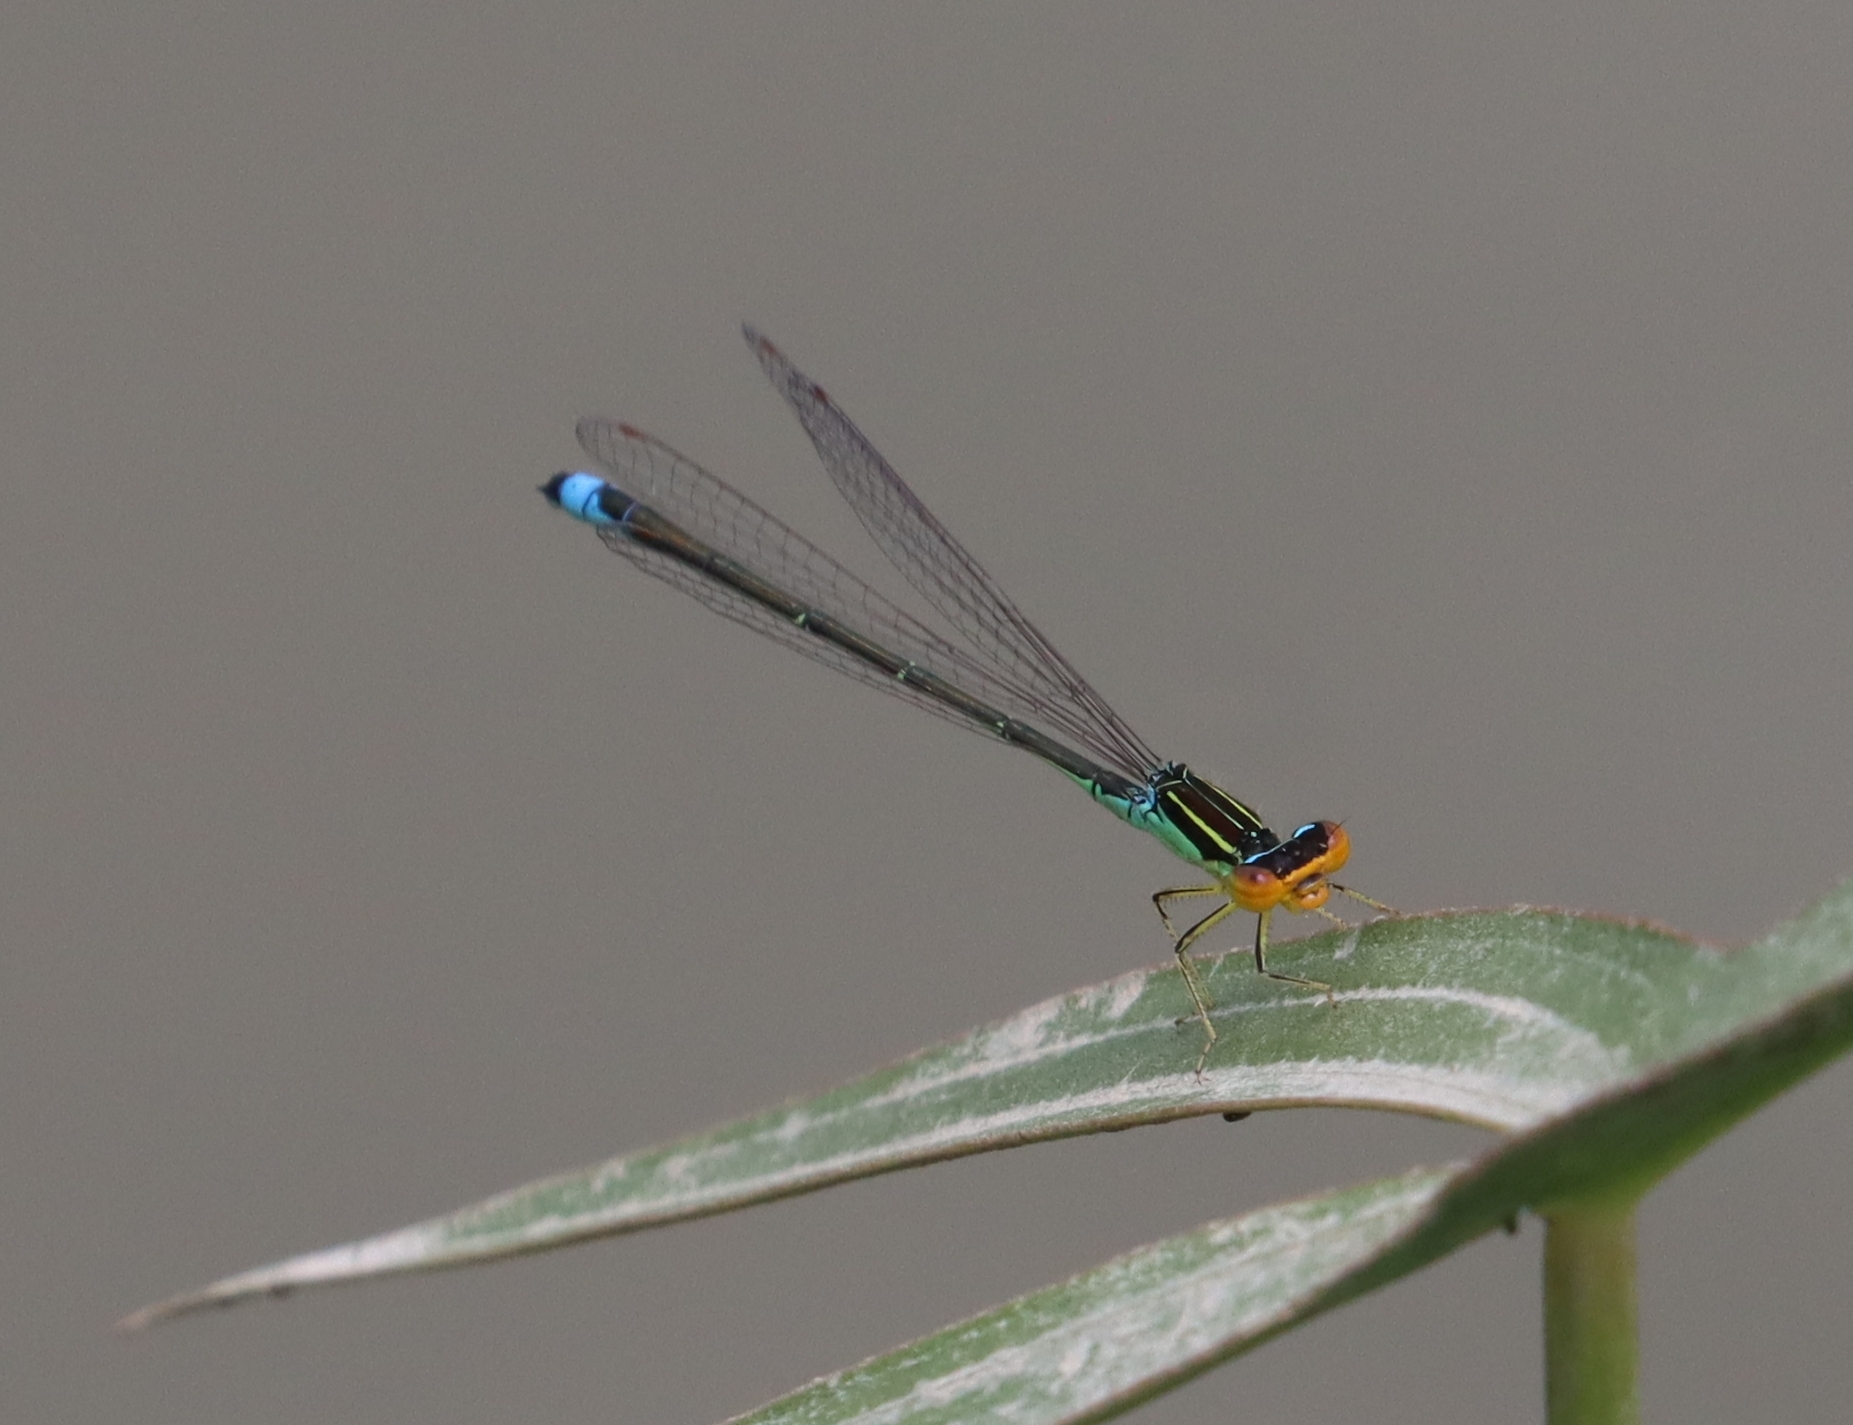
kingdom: Animalia
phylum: Arthropoda
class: Insecta
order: Odonata
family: Coenagrionidae
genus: Enallagma
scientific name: Enallagma antennatum
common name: Rainbow bluet
